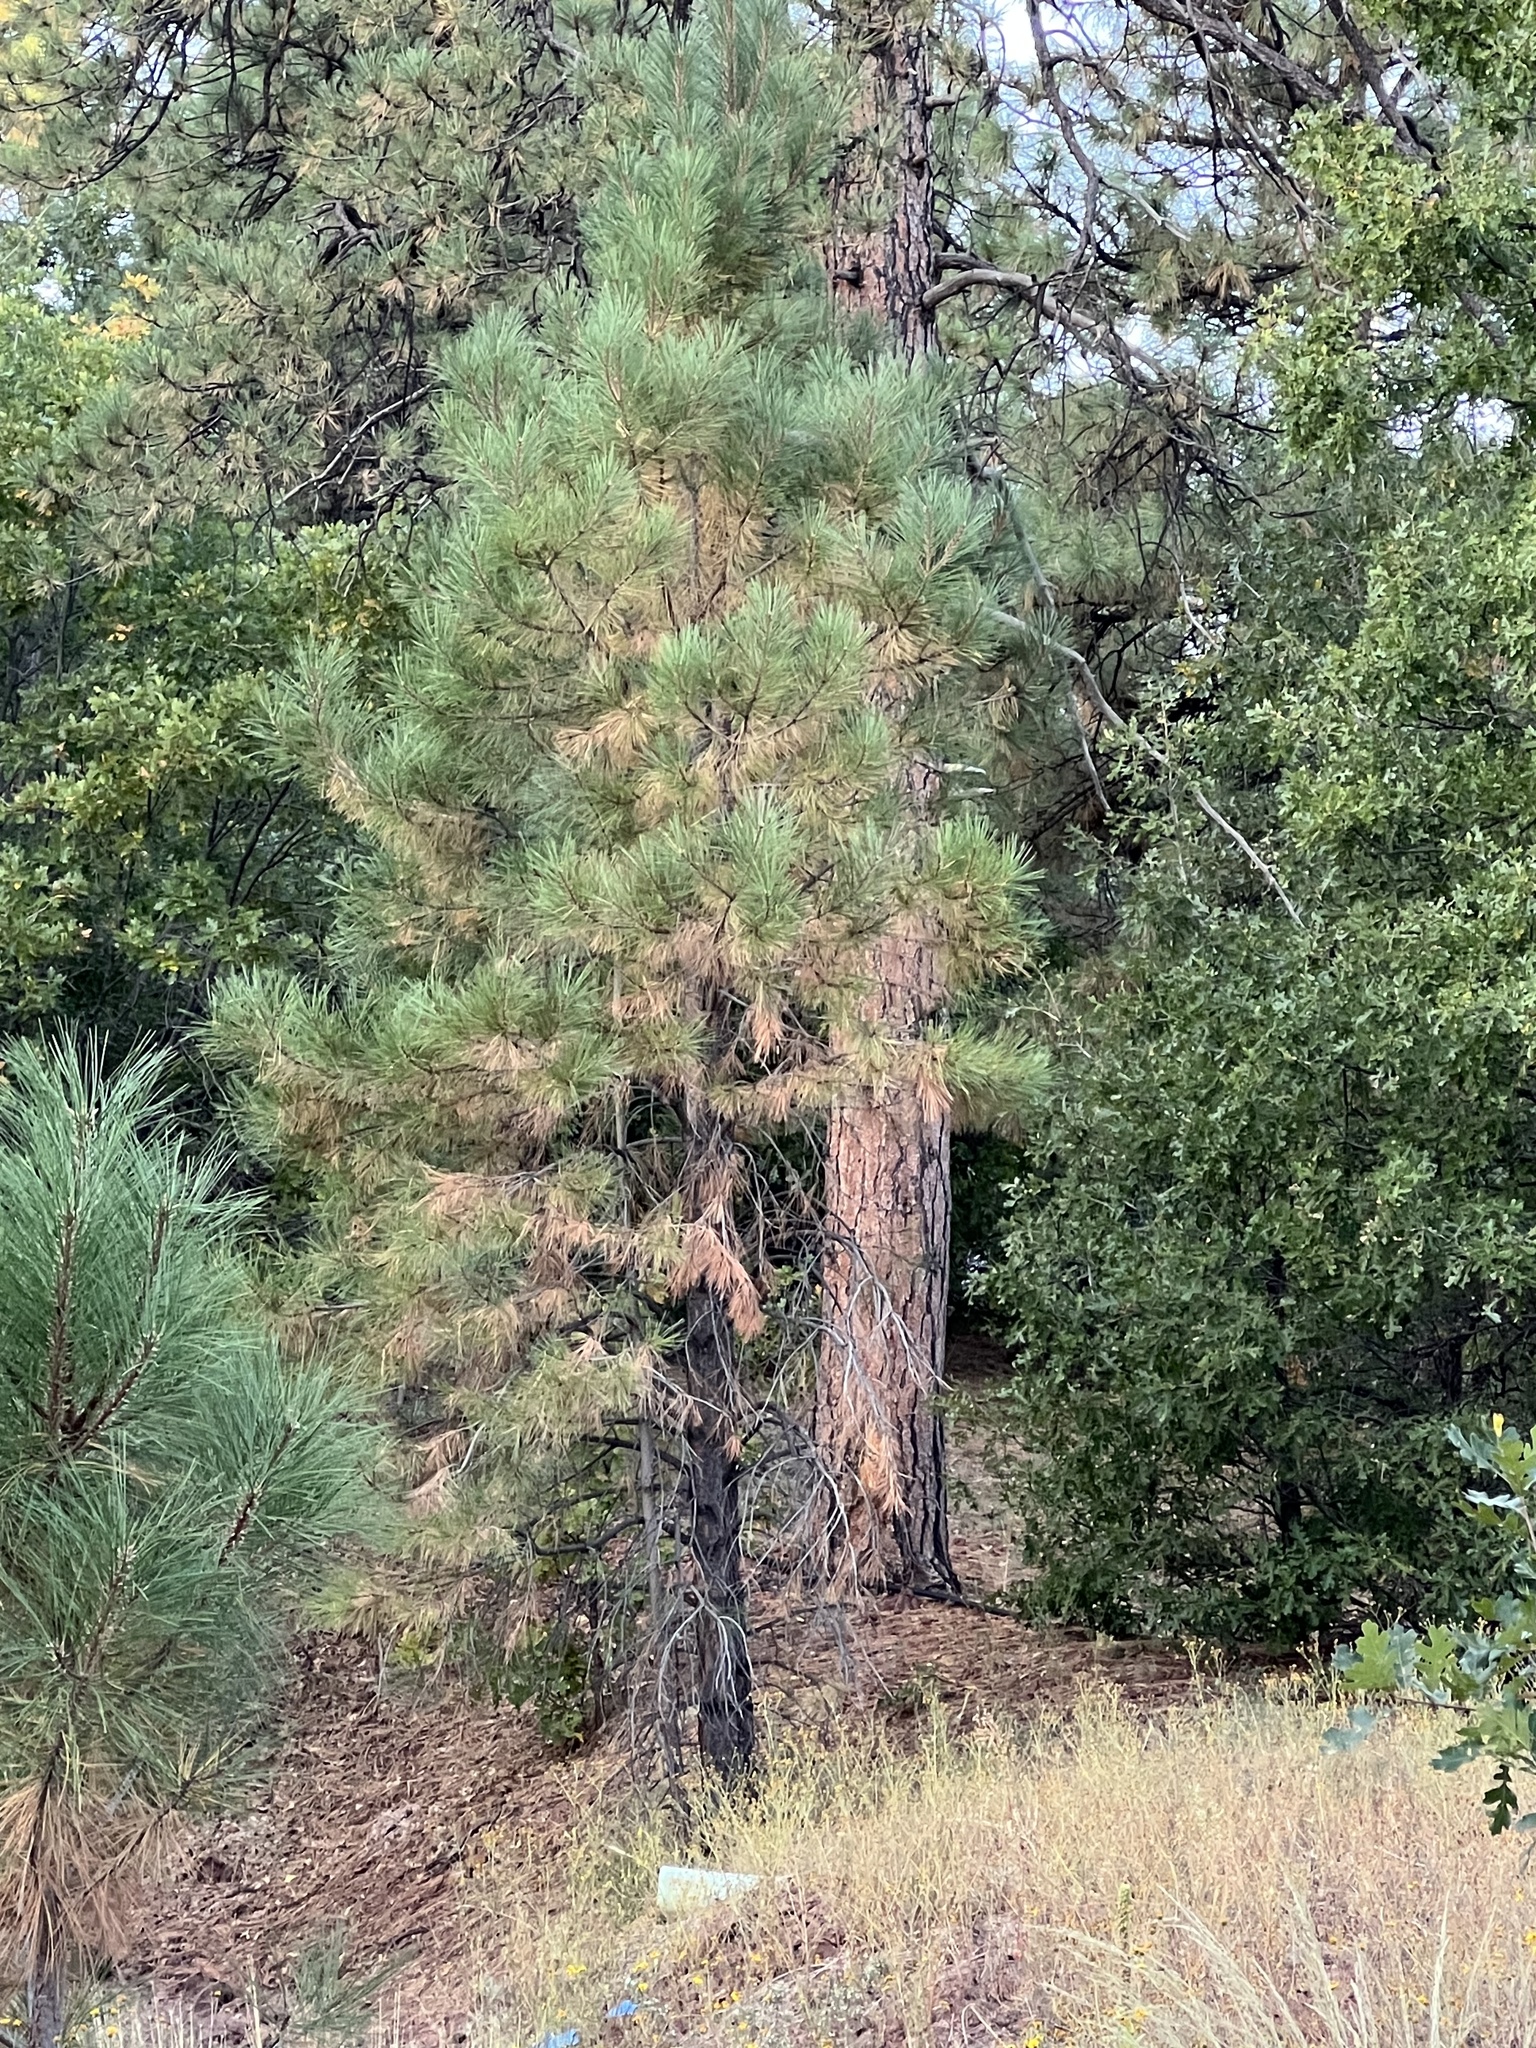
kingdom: Plantae
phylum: Tracheophyta
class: Pinopsida
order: Pinales
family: Pinaceae
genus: Pinus
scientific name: Pinus ponderosa
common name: Western yellow-pine
